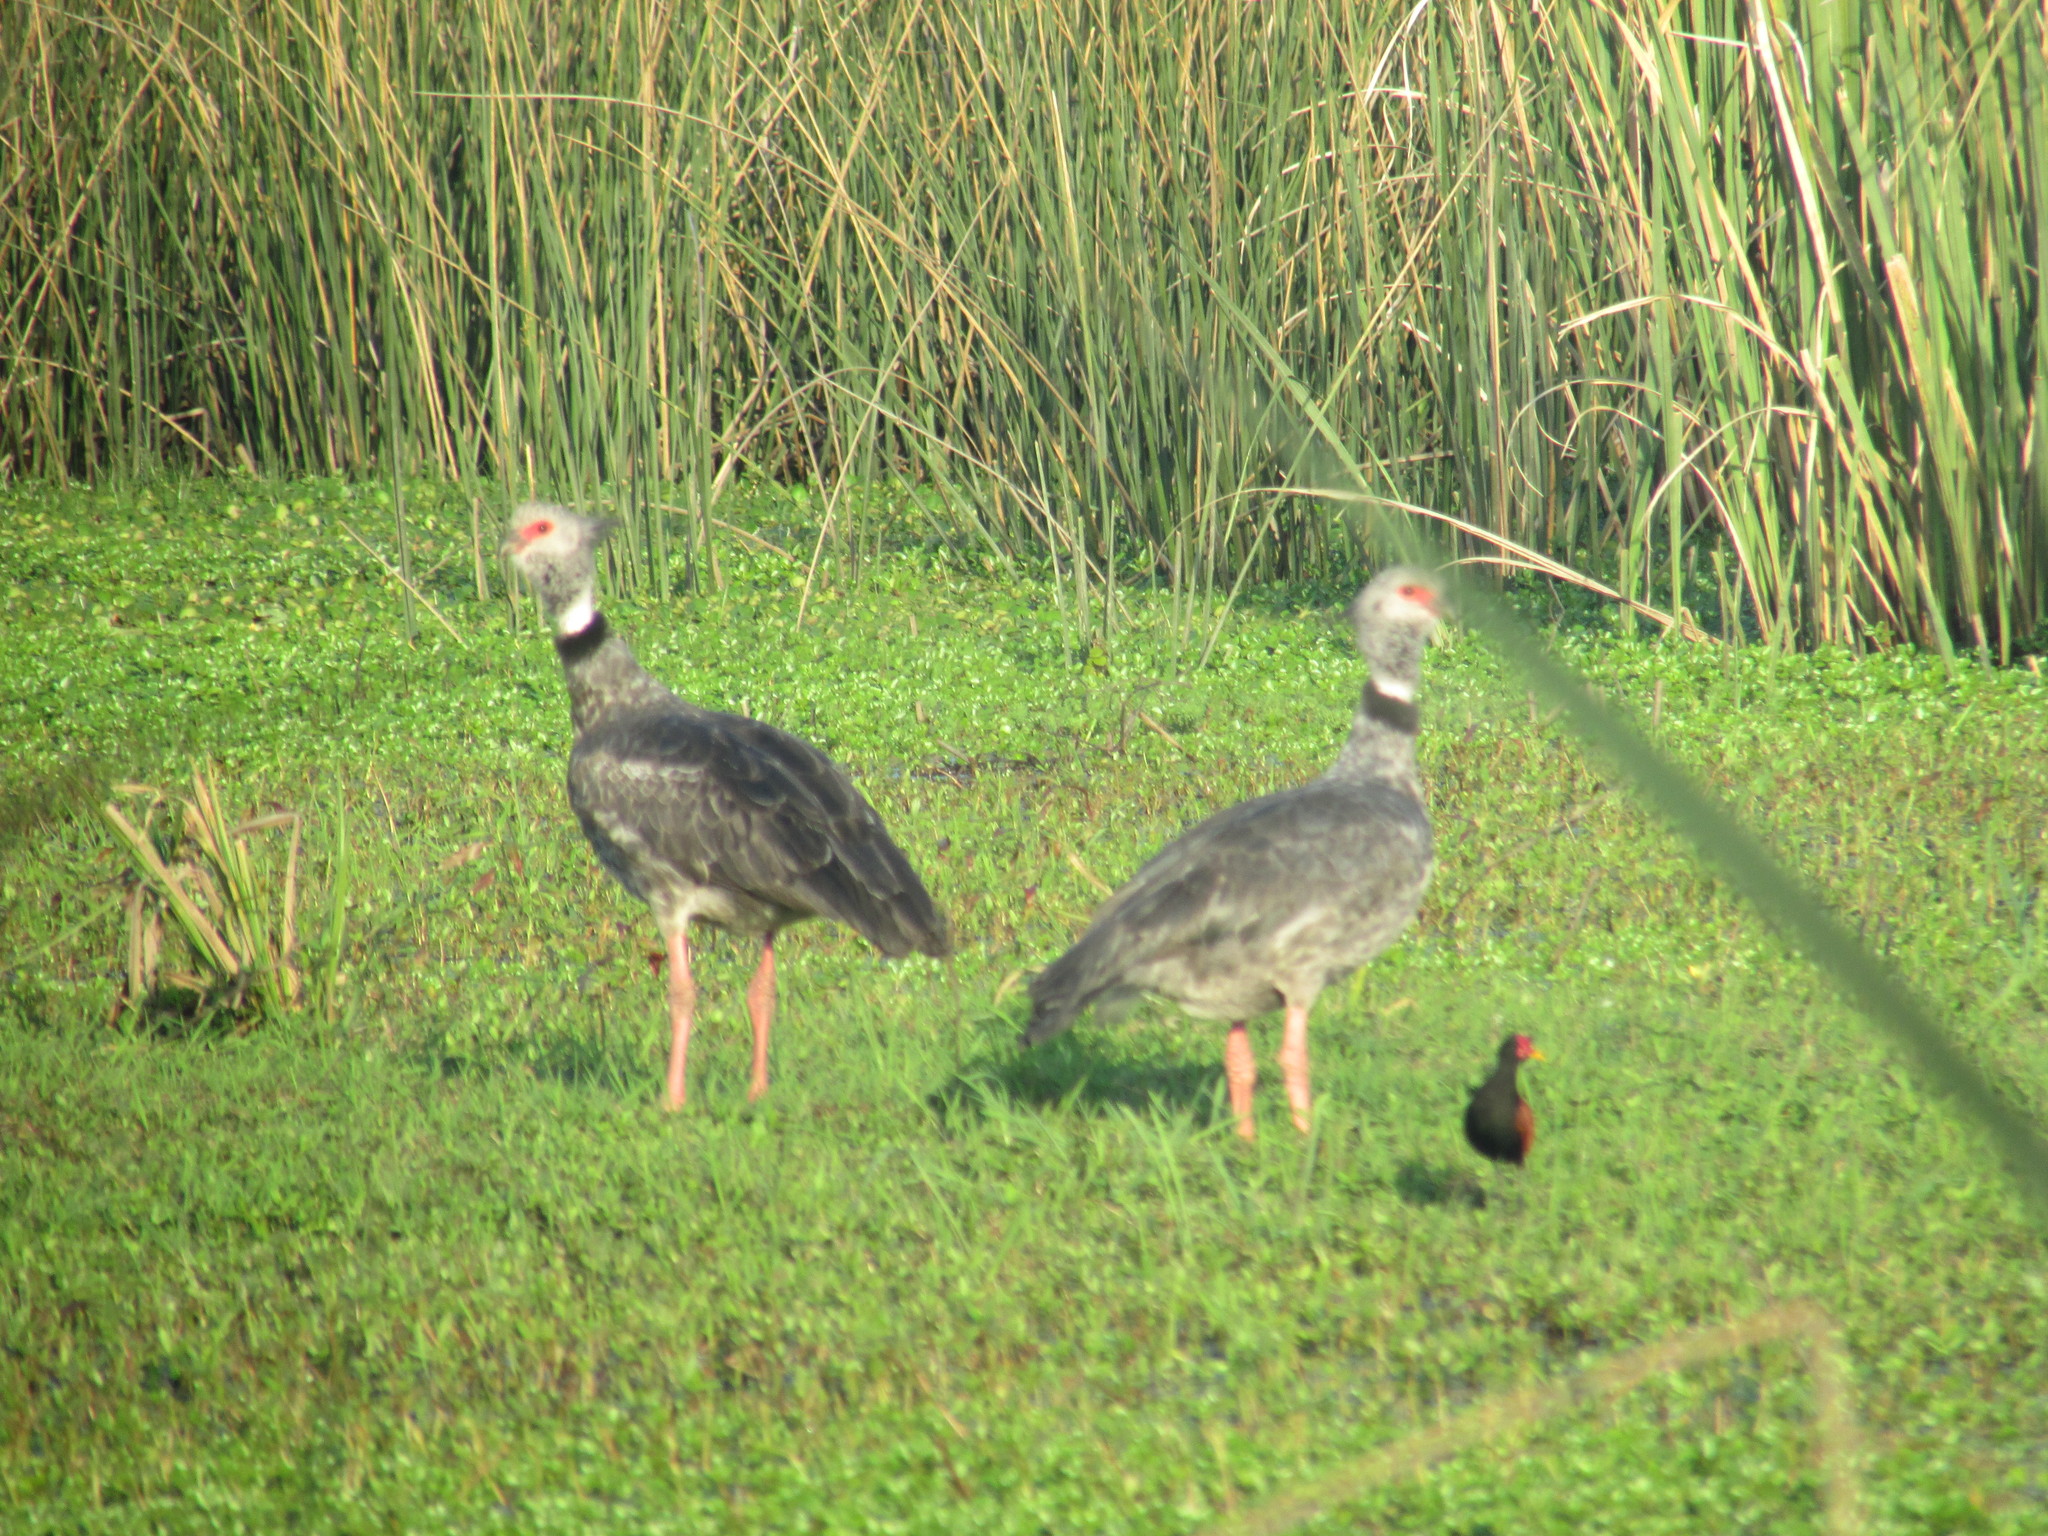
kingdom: Animalia
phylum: Chordata
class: Aves
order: Anseriformes
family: Anhimidae
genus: Chauna
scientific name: Chauna torquata
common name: Southern screamer
